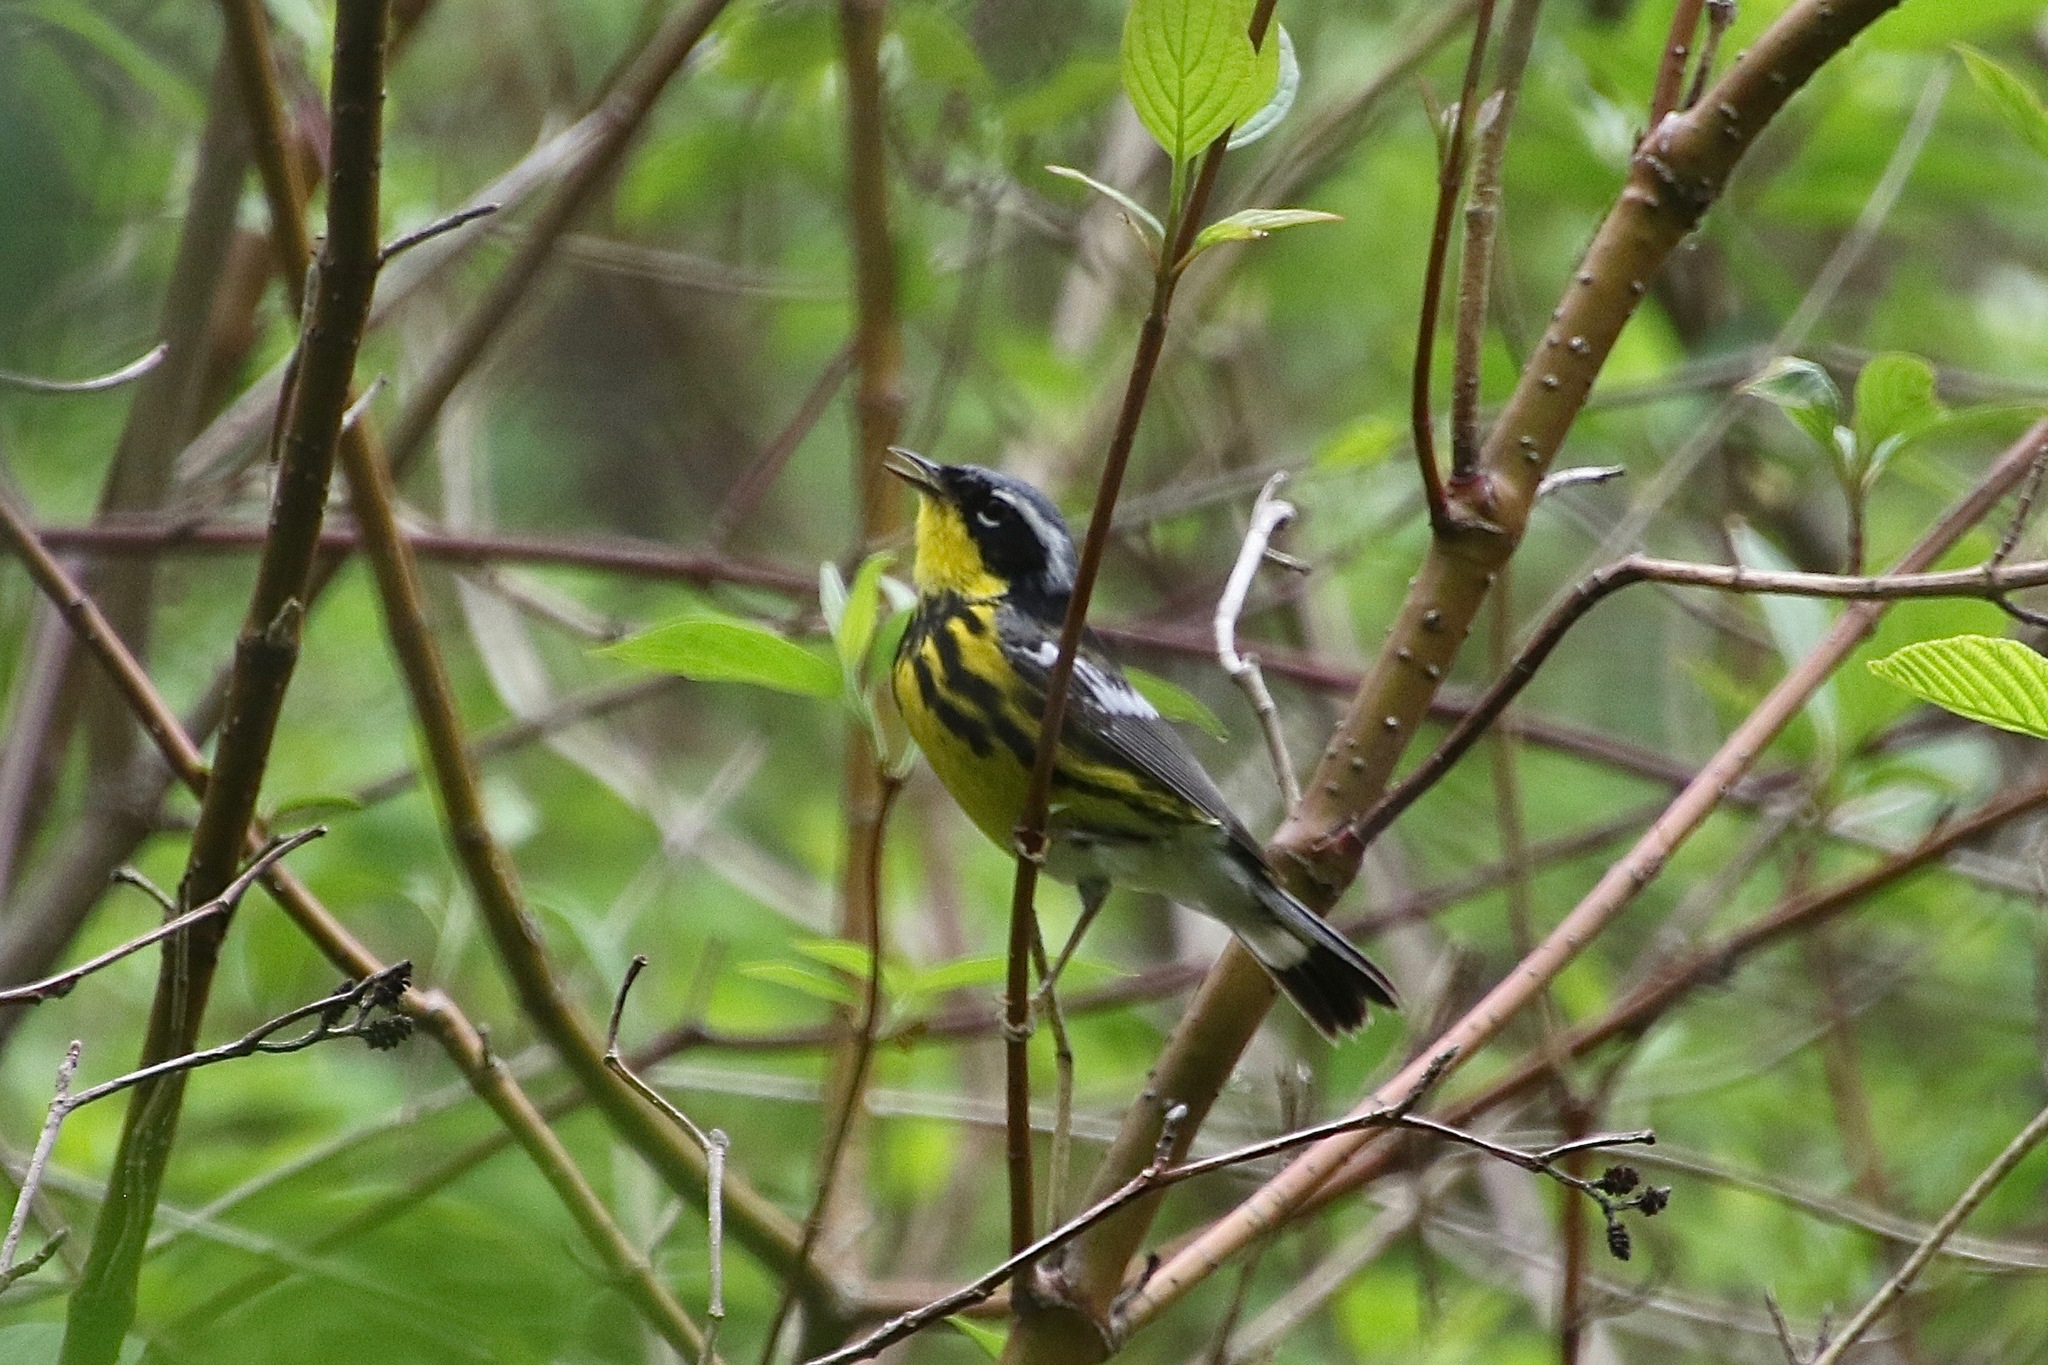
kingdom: Animalia
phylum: Chordata
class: Aves
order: Passeriformes
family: Parulidae
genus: Setophaga
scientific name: Setophaga magnolia
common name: Magnolia warbler
